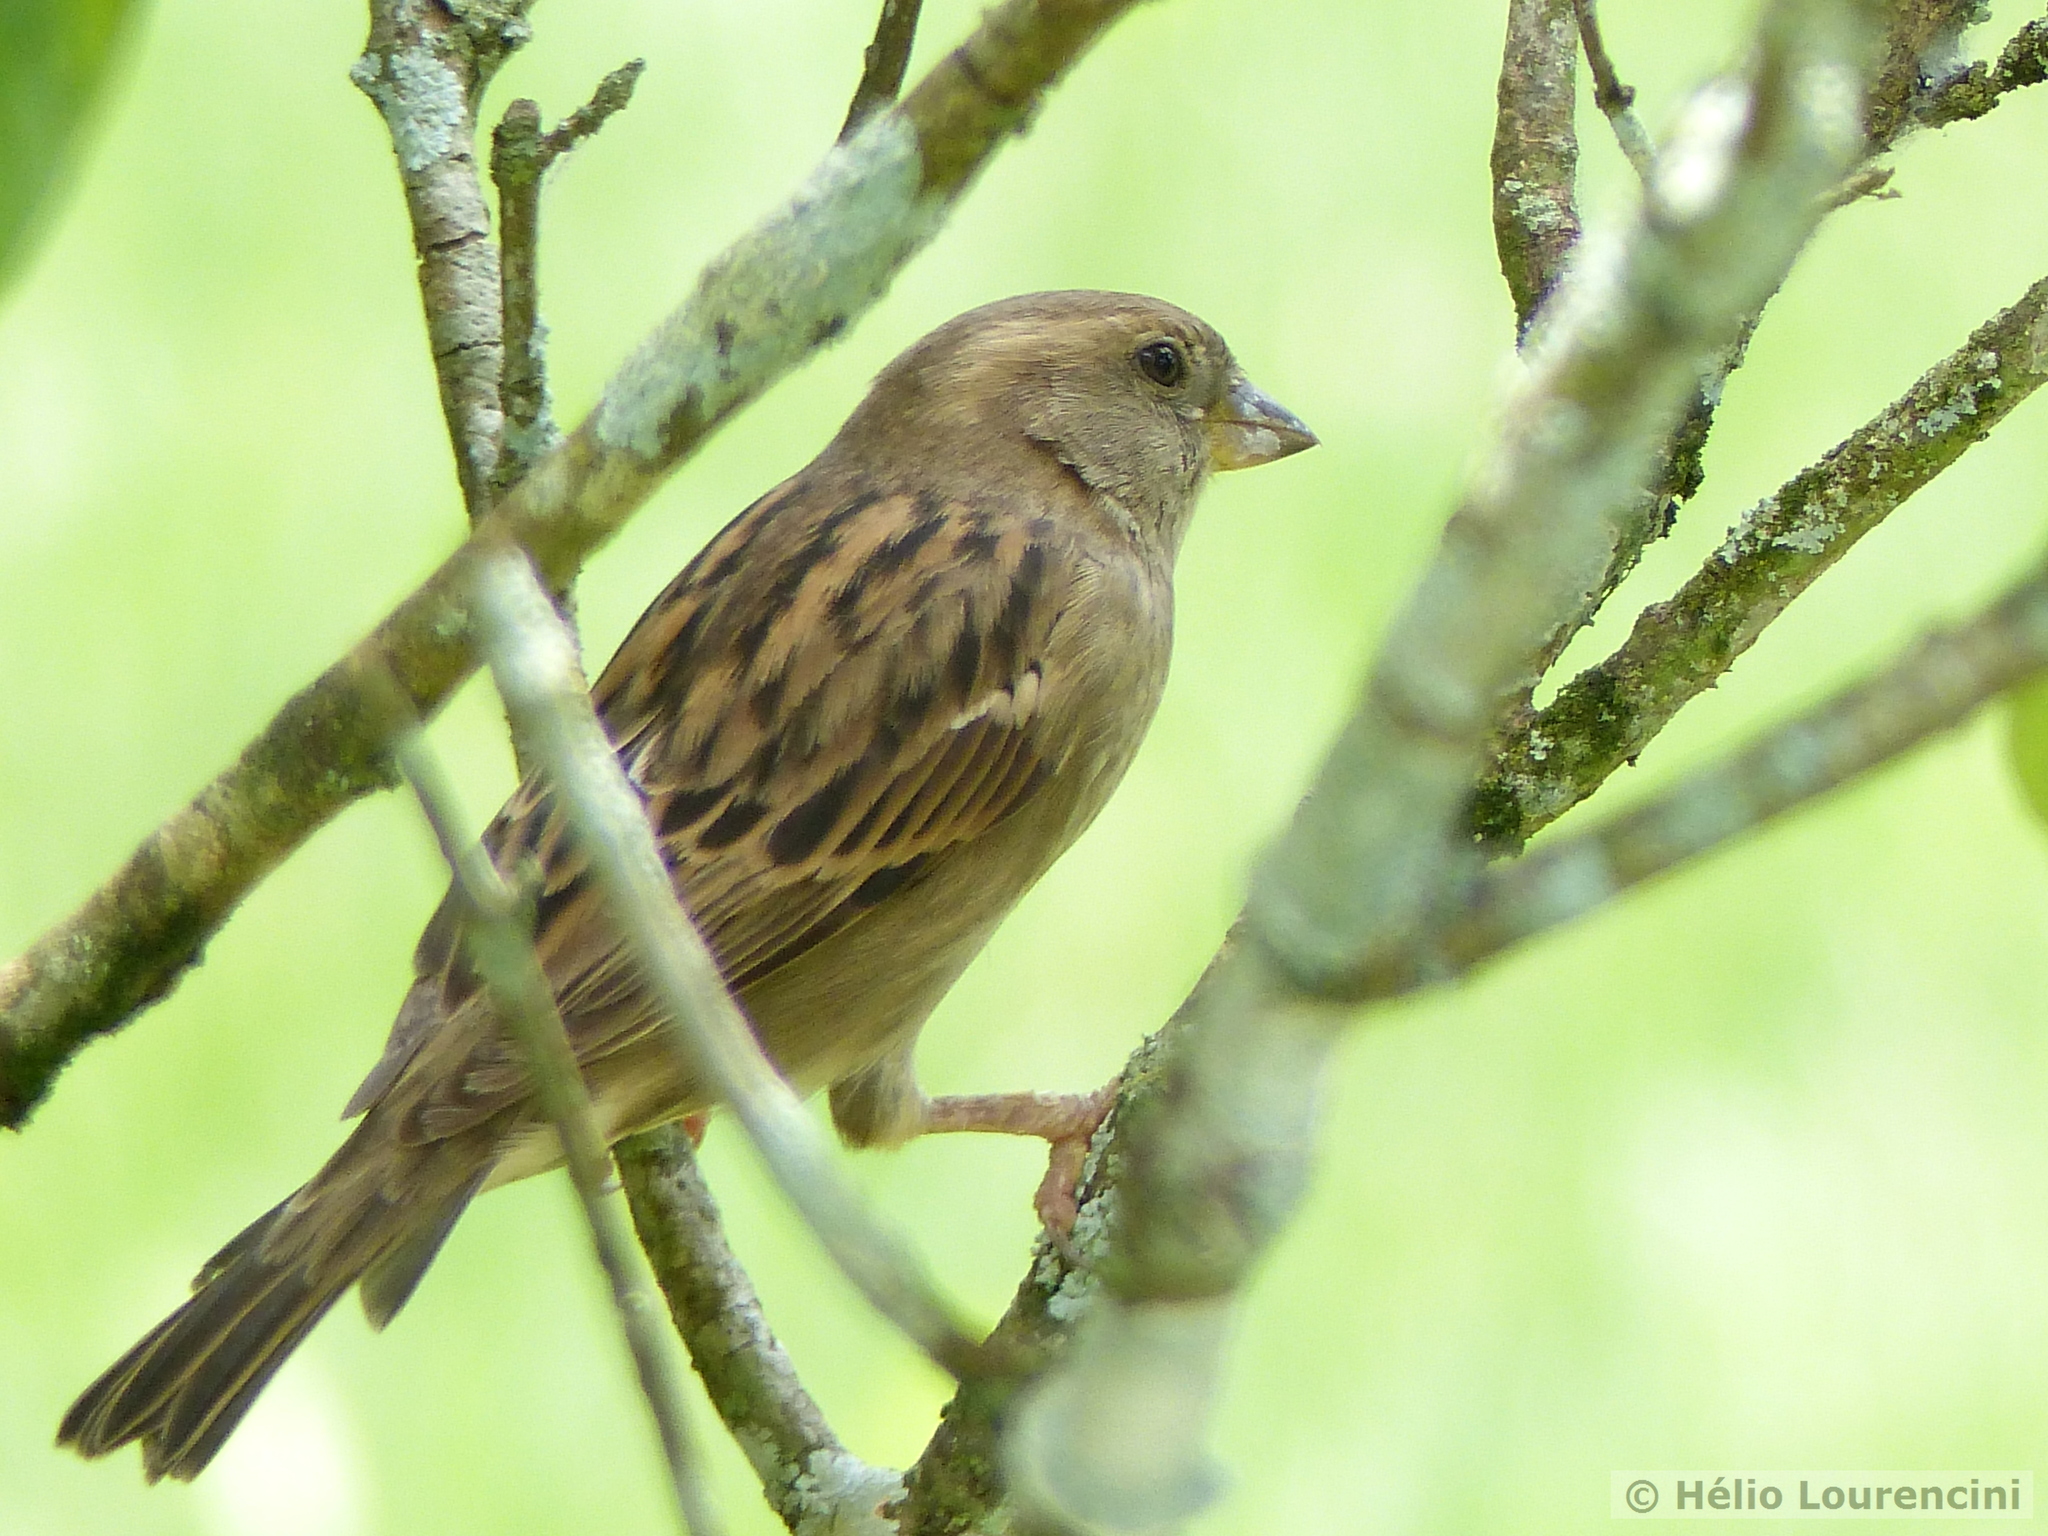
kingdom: Animalia
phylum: Chordata
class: Aves
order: Passeriformes
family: Passeridae
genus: Passer
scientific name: Passer domesticus
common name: House sparrow
